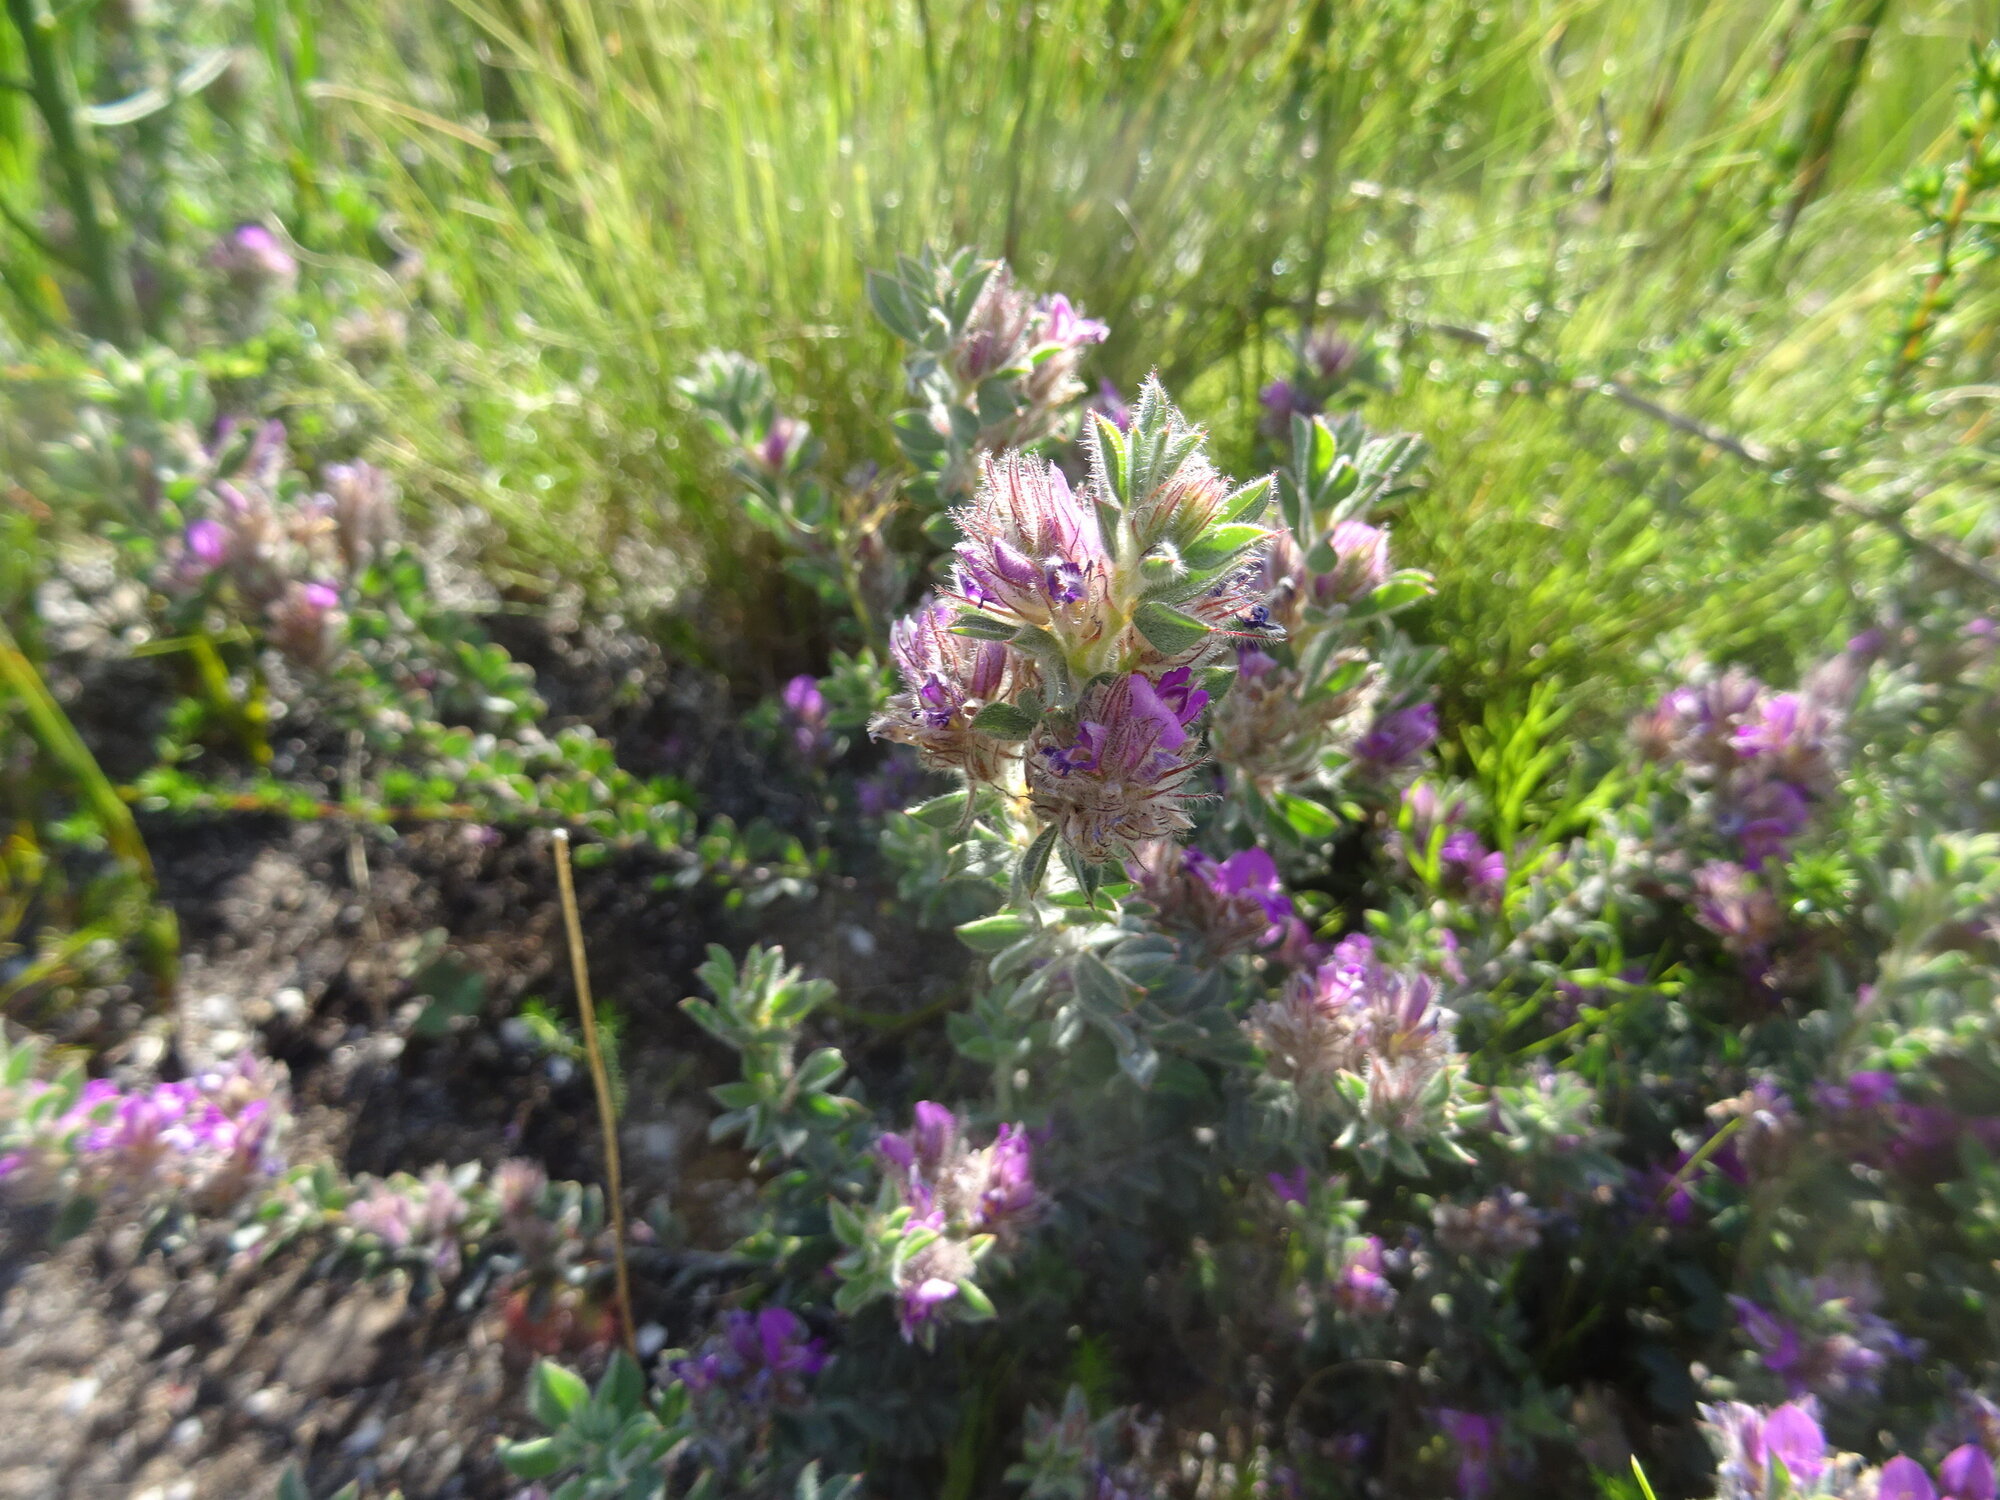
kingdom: Plantae
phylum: Tracheophyta
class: Magnoliopsida
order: Fabales
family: Fabaceae
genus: Indigofera
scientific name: Indigofera glomerata
